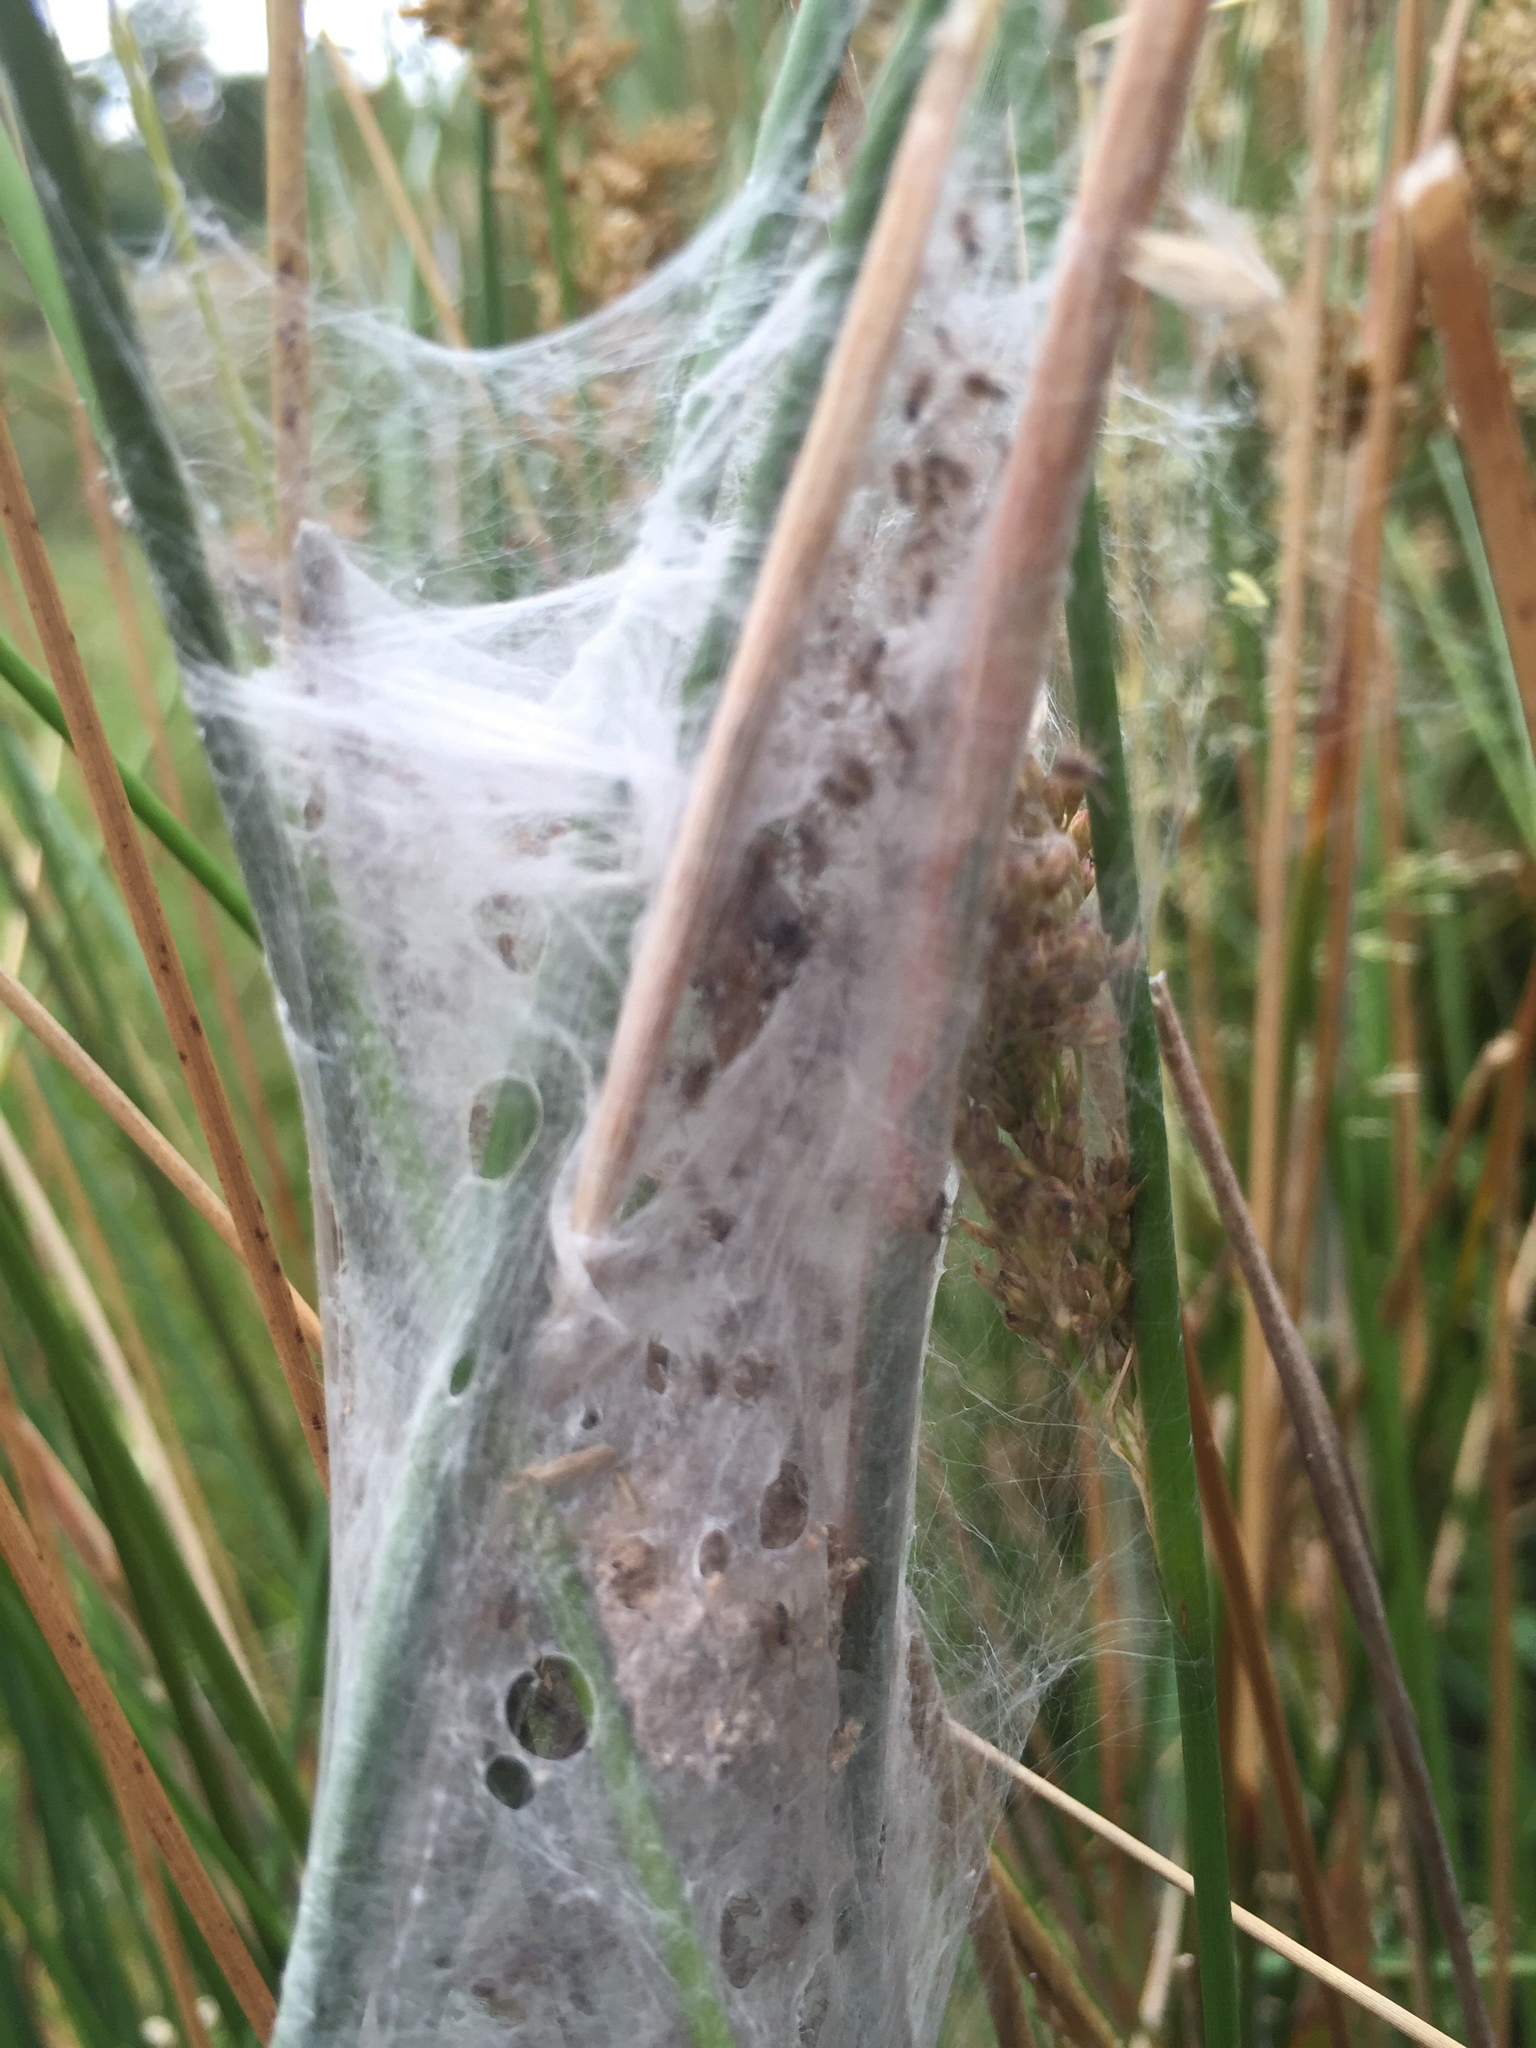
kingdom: Animalia
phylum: Arthropoda
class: Arachnida
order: Araneae
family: Pisauridae
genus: Dolomedes
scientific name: Dolomedes minor
